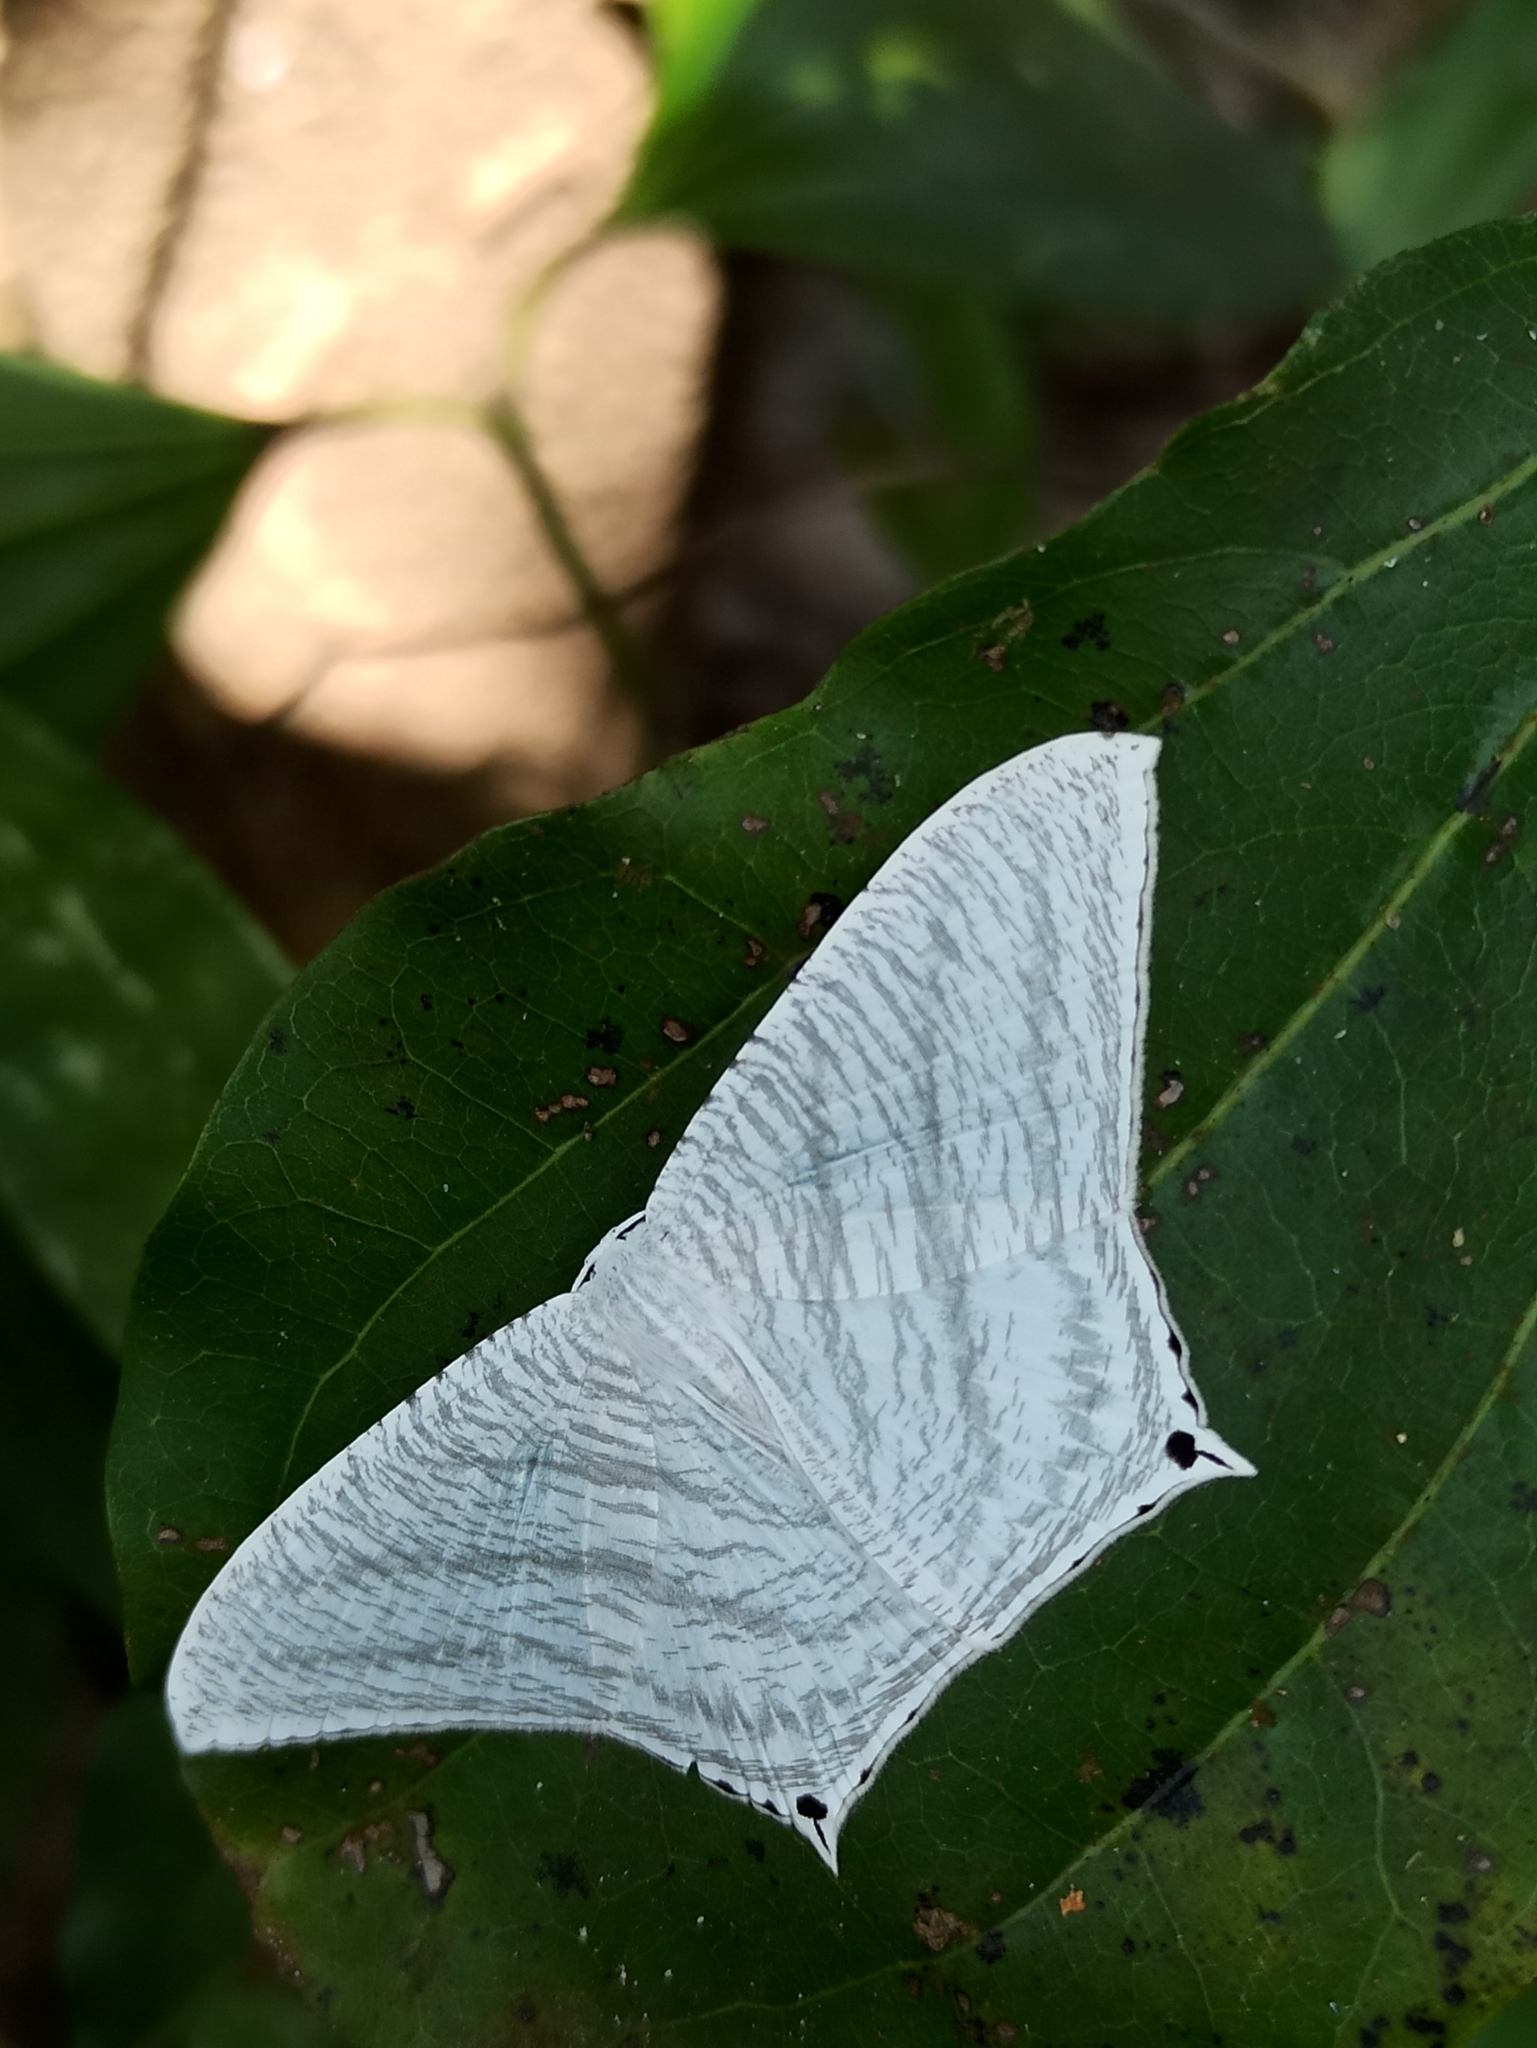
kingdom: Animalia
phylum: Arthropoda
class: Insecta
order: Lepidoptera
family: Uraniidae
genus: Micronia
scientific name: Micronia aculeata
